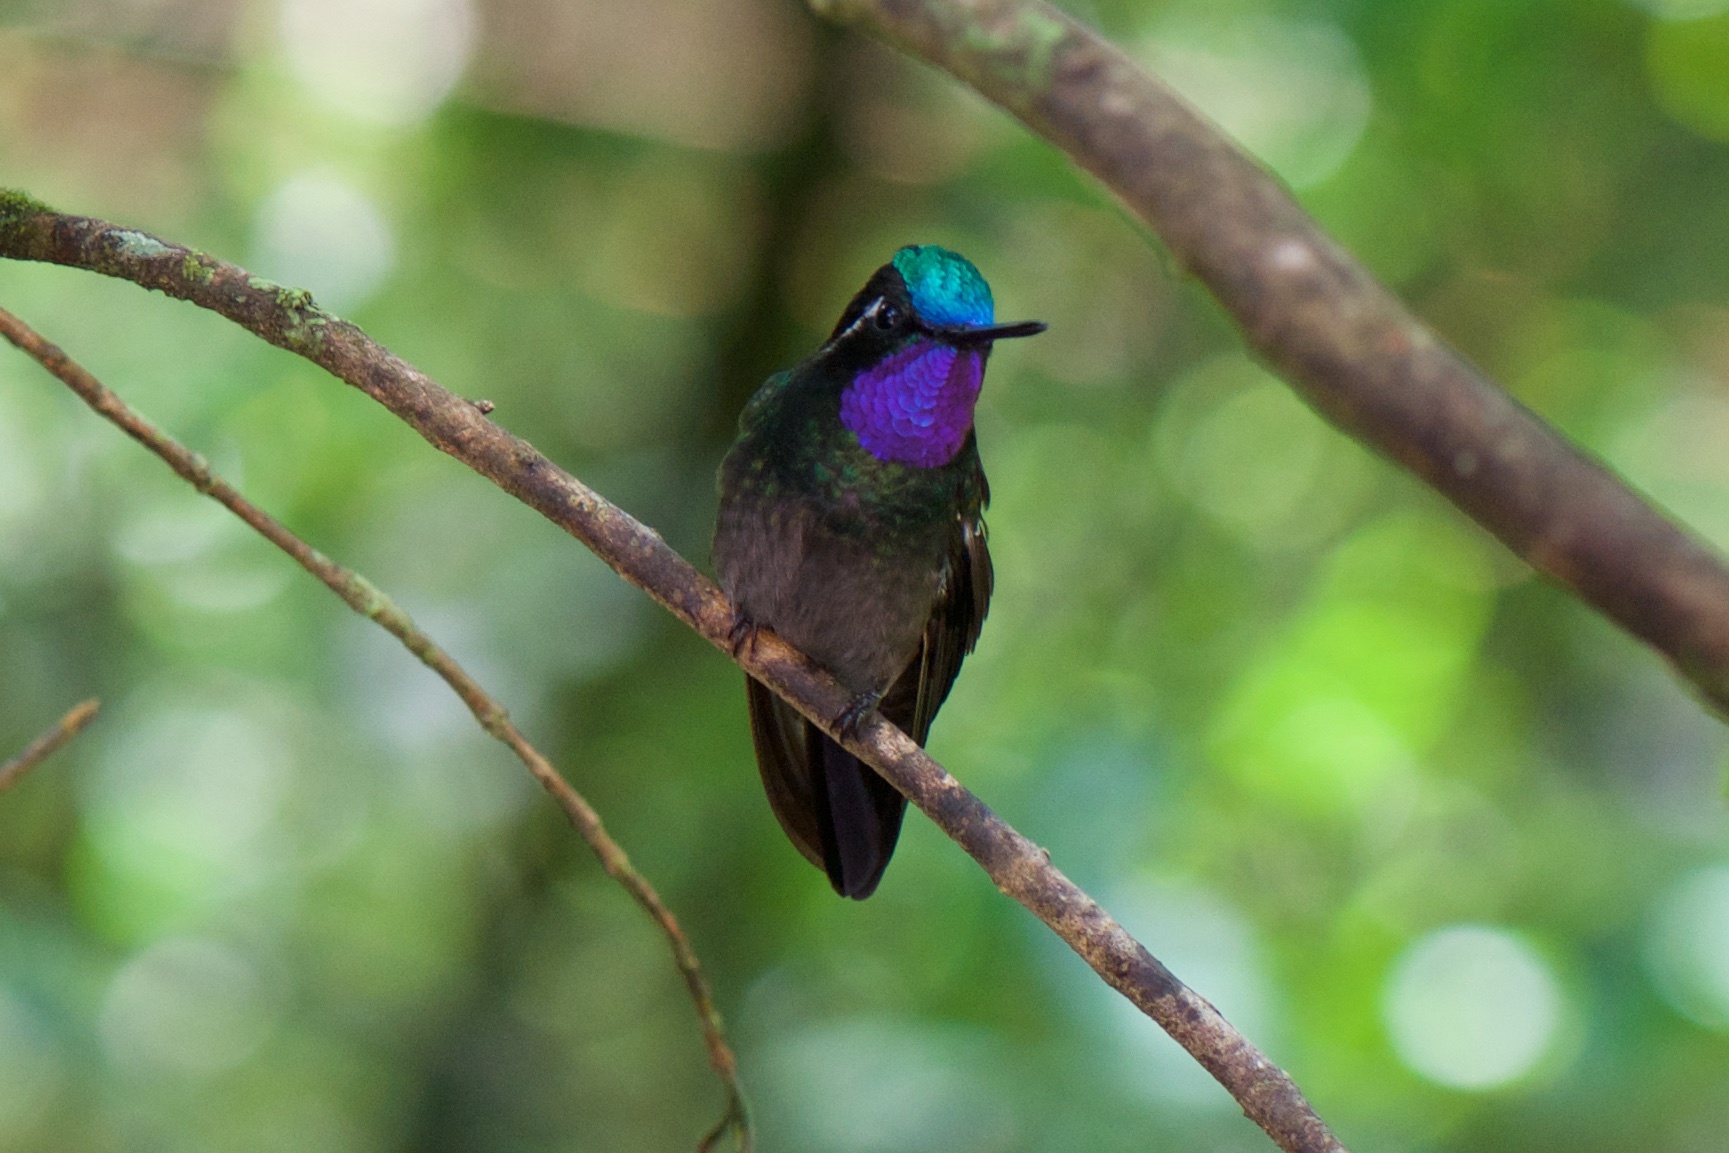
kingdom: Animalia
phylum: Chordata
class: Aves
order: Apodiformes
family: Trochilidae
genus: Lampornis
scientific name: Lampornis calolaemus
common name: Purple-throated mountain-gem
